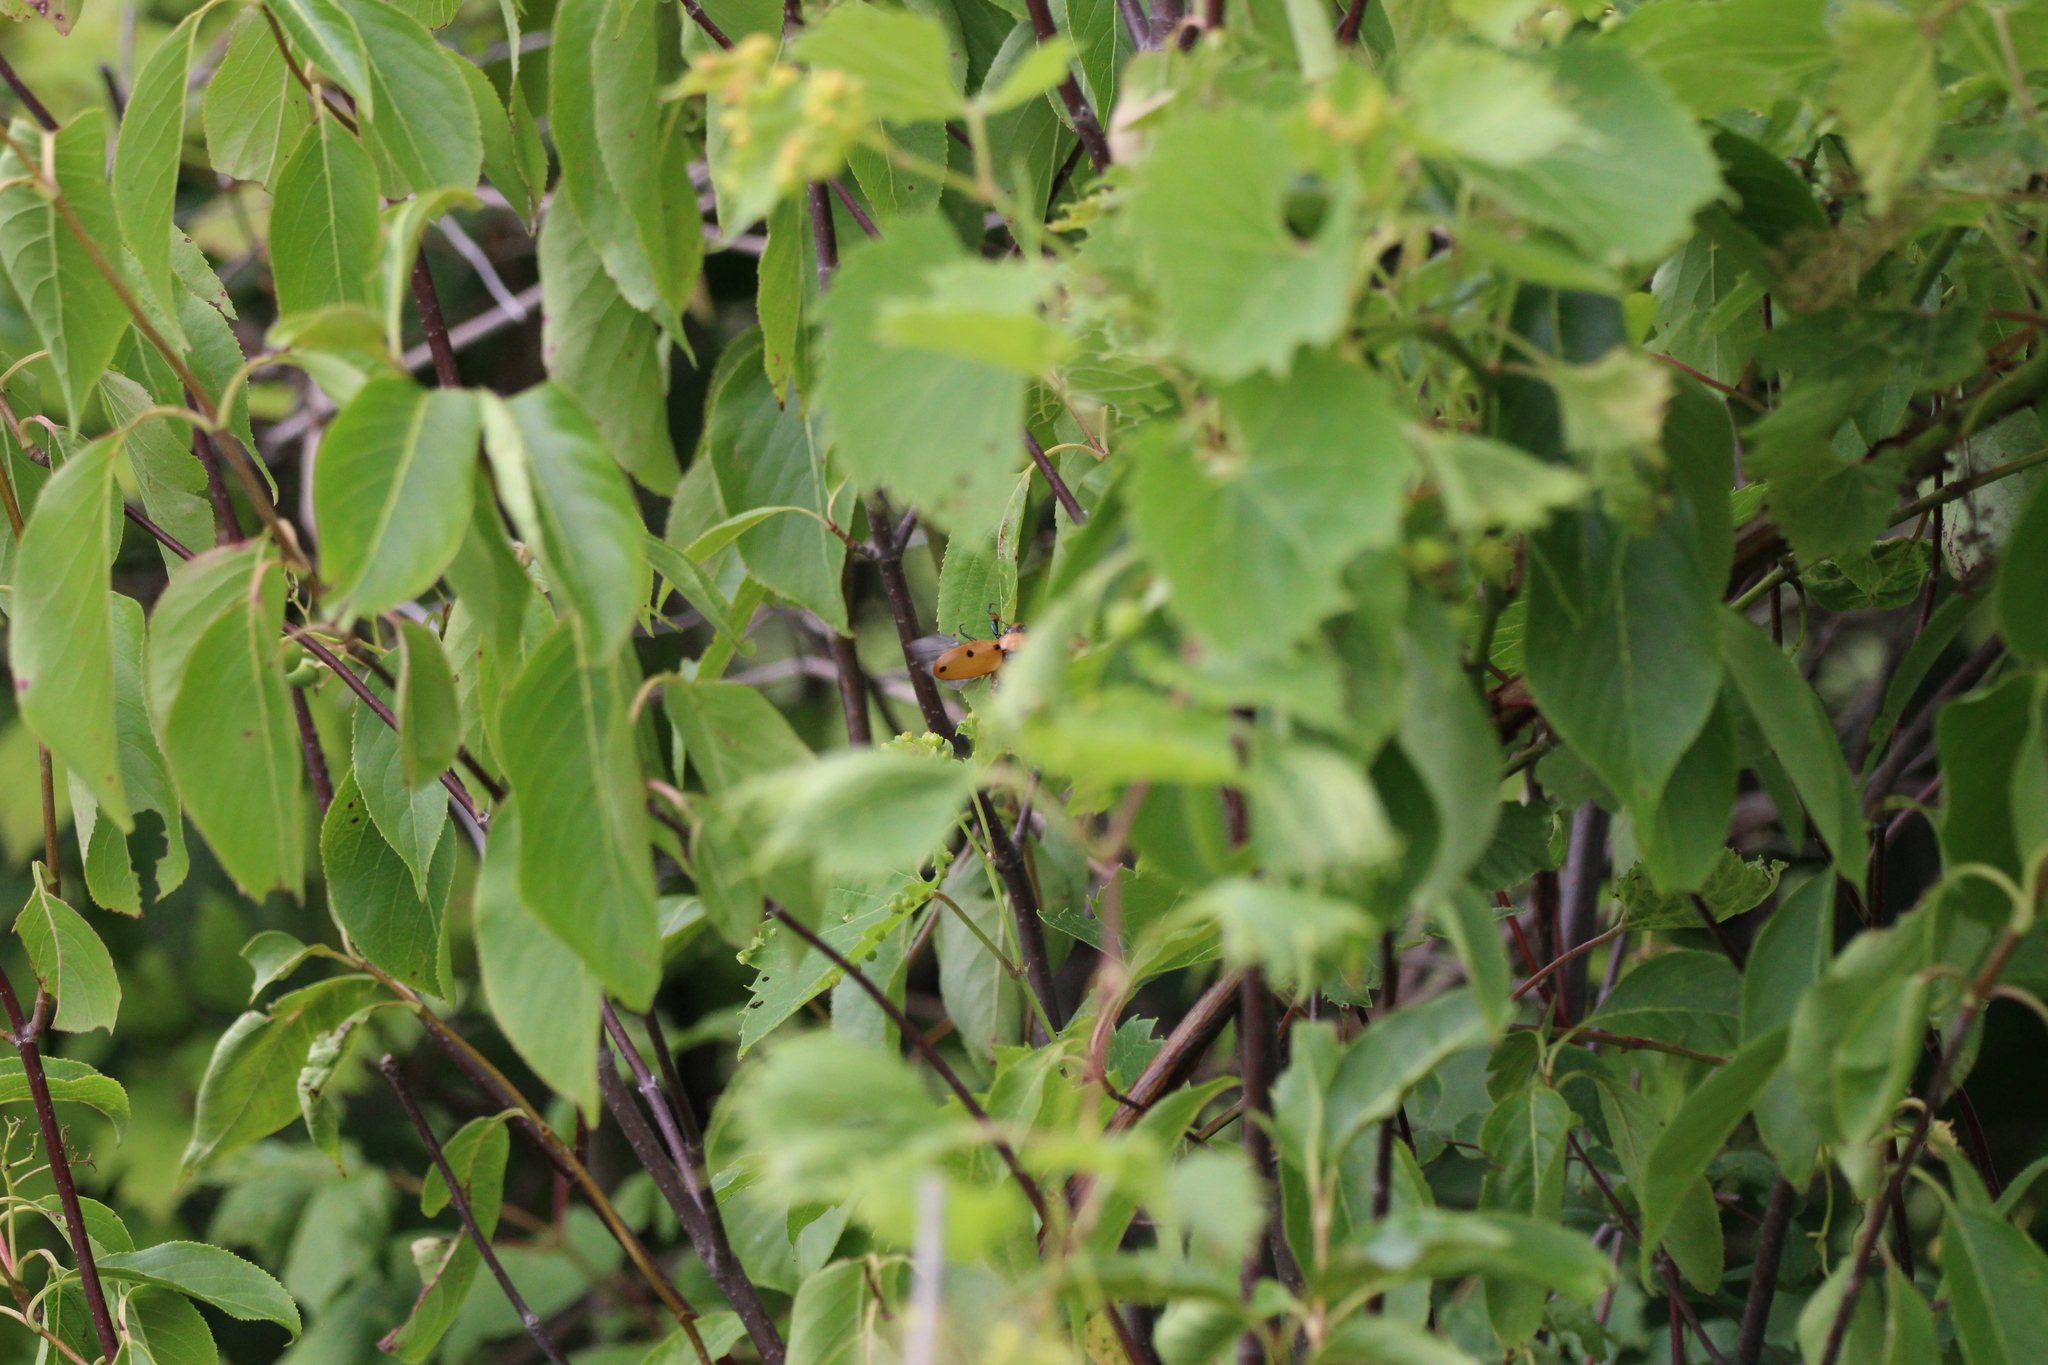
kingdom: Animalia
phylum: Arthropoda
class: Insecta
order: Coleoptera
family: Scarabaeidae
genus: Pelidnota
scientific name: Pelidnota punctata
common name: Grapevine beetle
